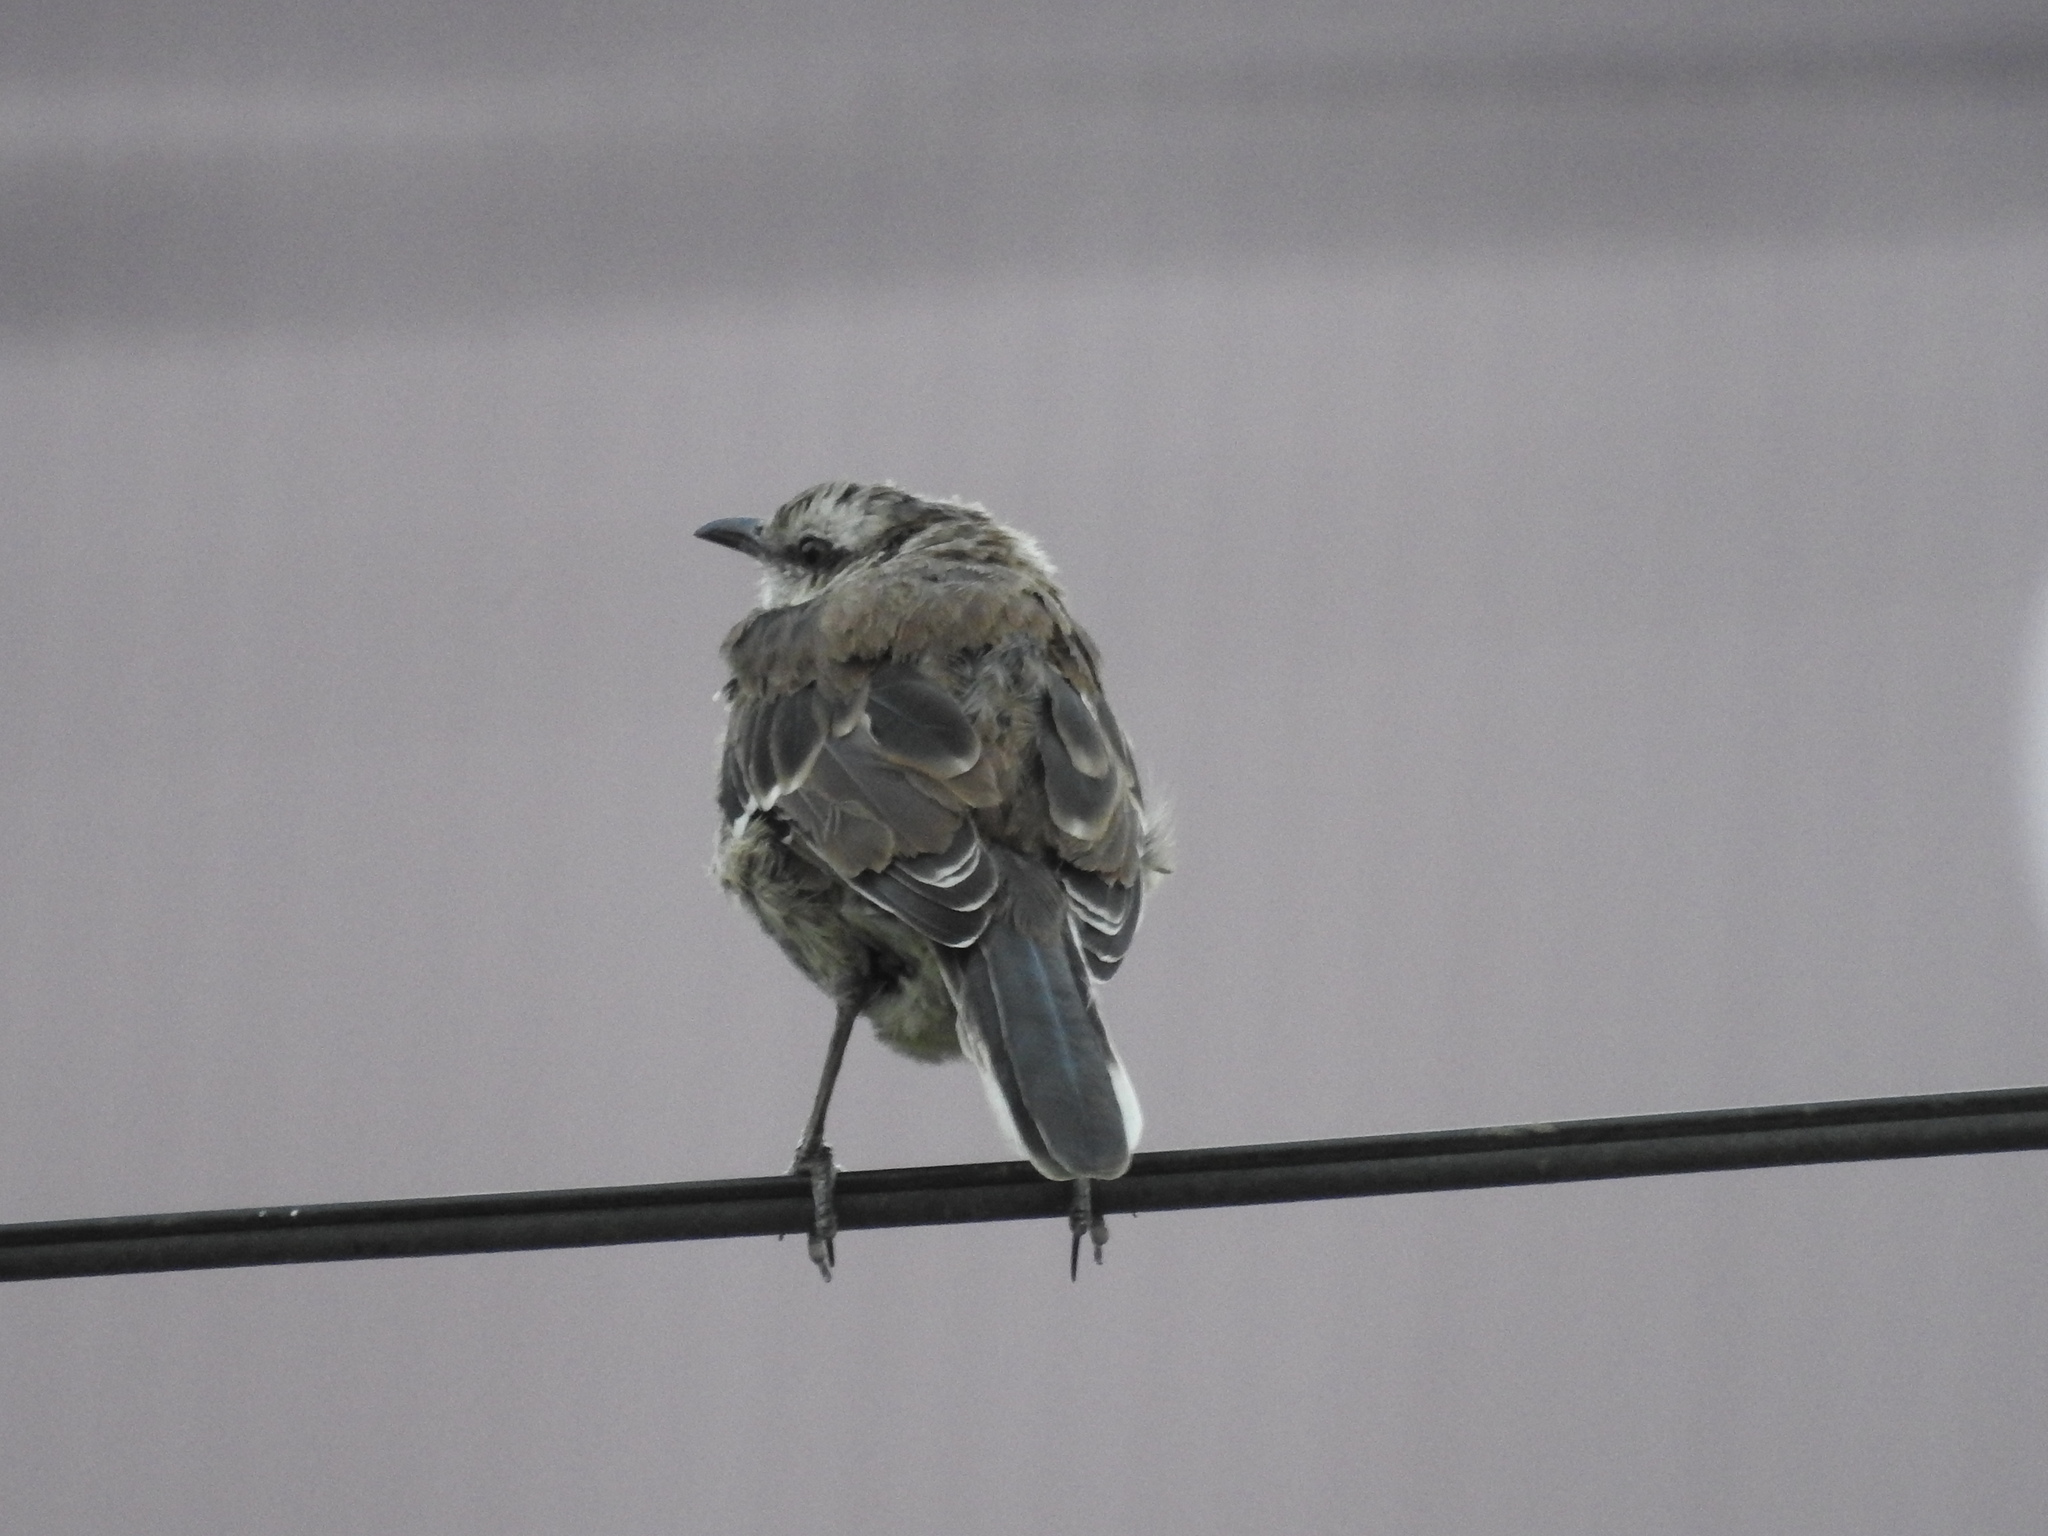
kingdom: Animalia
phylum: Chordata
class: Aves
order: Passeriformes
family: Mimidae
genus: Mimus
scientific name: Mimus patagonicus
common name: Patagonian mockingbird
